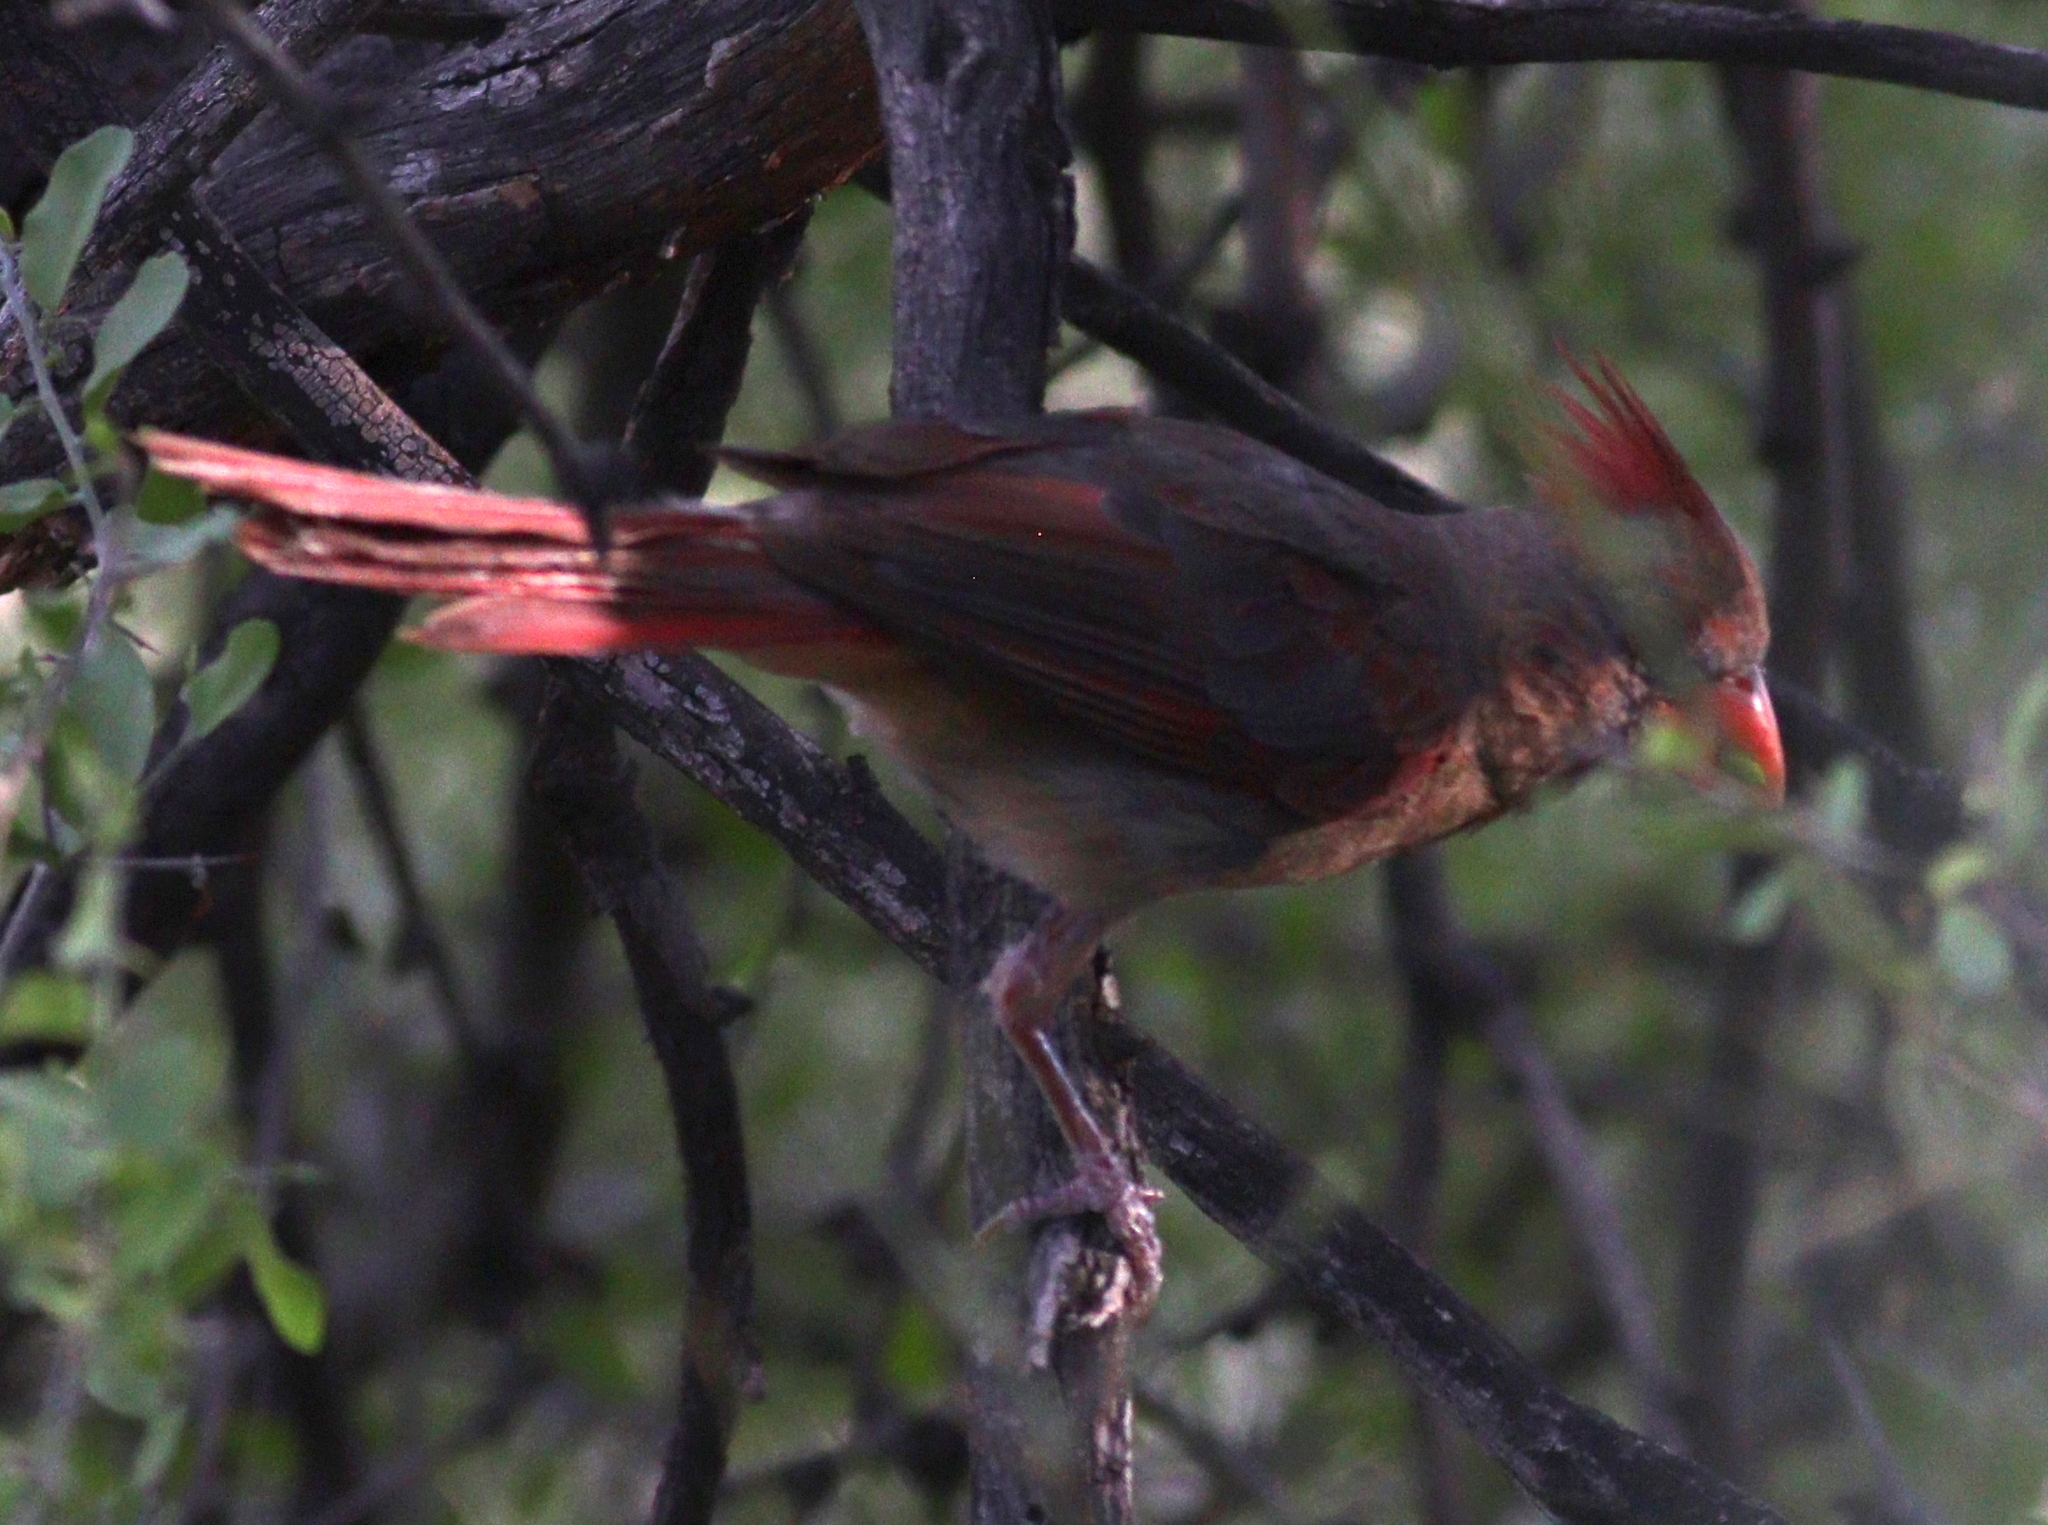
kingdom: Animalia
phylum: Chordata
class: Aves
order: Passeriformes
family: Cardinalidae
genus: Cardinalis
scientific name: Cardinalis cardinalis
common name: Northern cardinal
